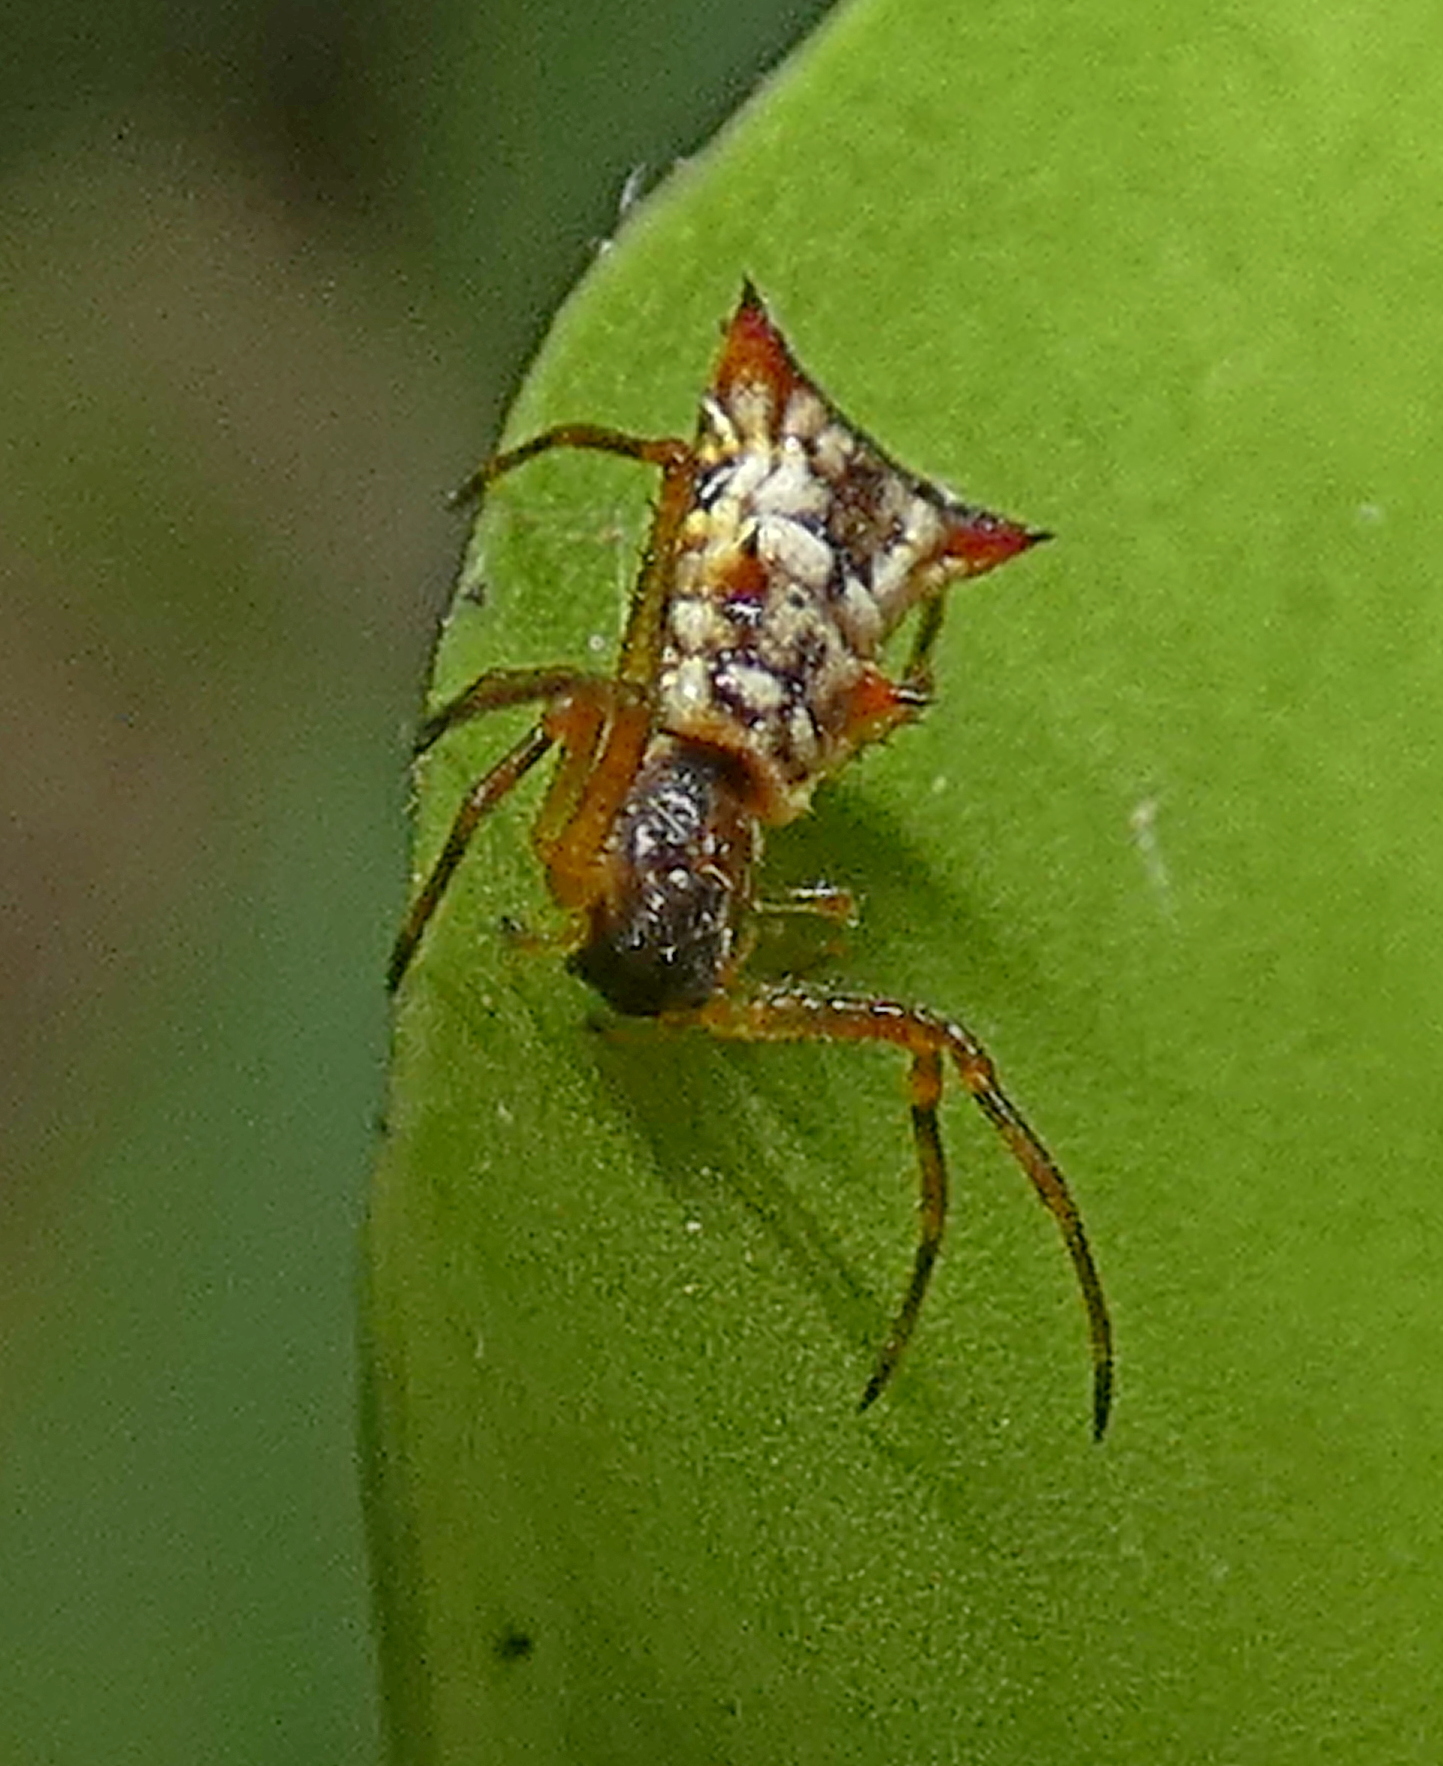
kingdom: Animalia
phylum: Arthropoda
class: Arachnida
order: Araneae
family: Araneidae
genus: Micrathena
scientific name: Micrathena fissispina
